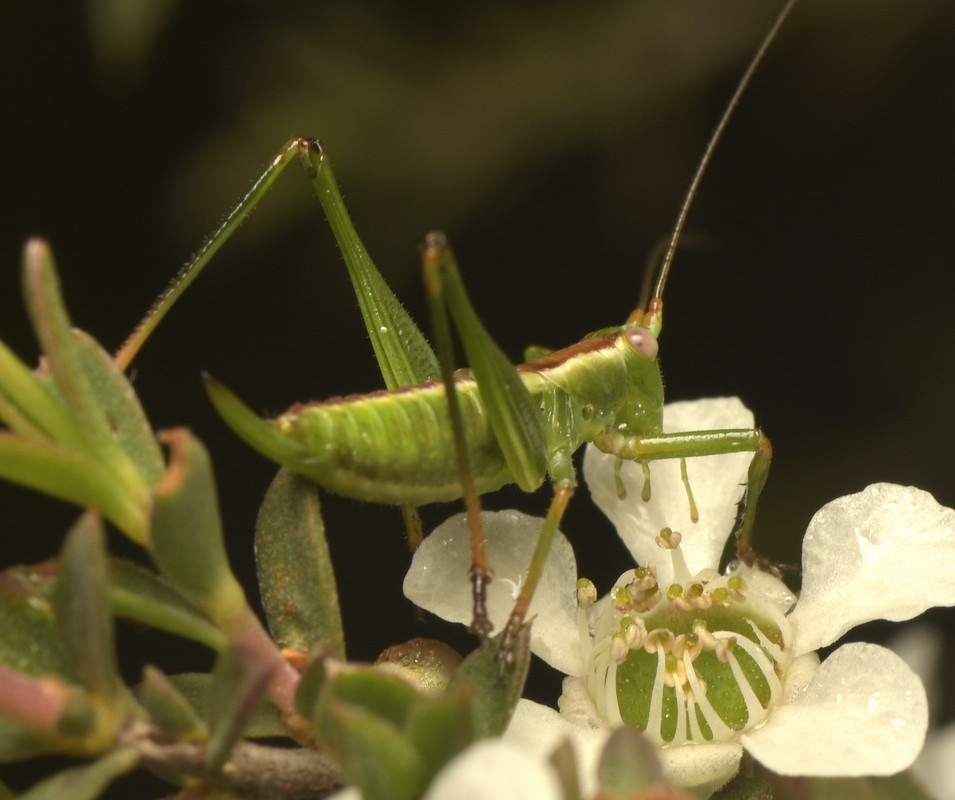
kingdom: Animalia
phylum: Arthropoda
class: Insecta
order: Orthoptera
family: Tettigoniidae
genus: Conocephalomima
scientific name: Conocephalomima barameda
